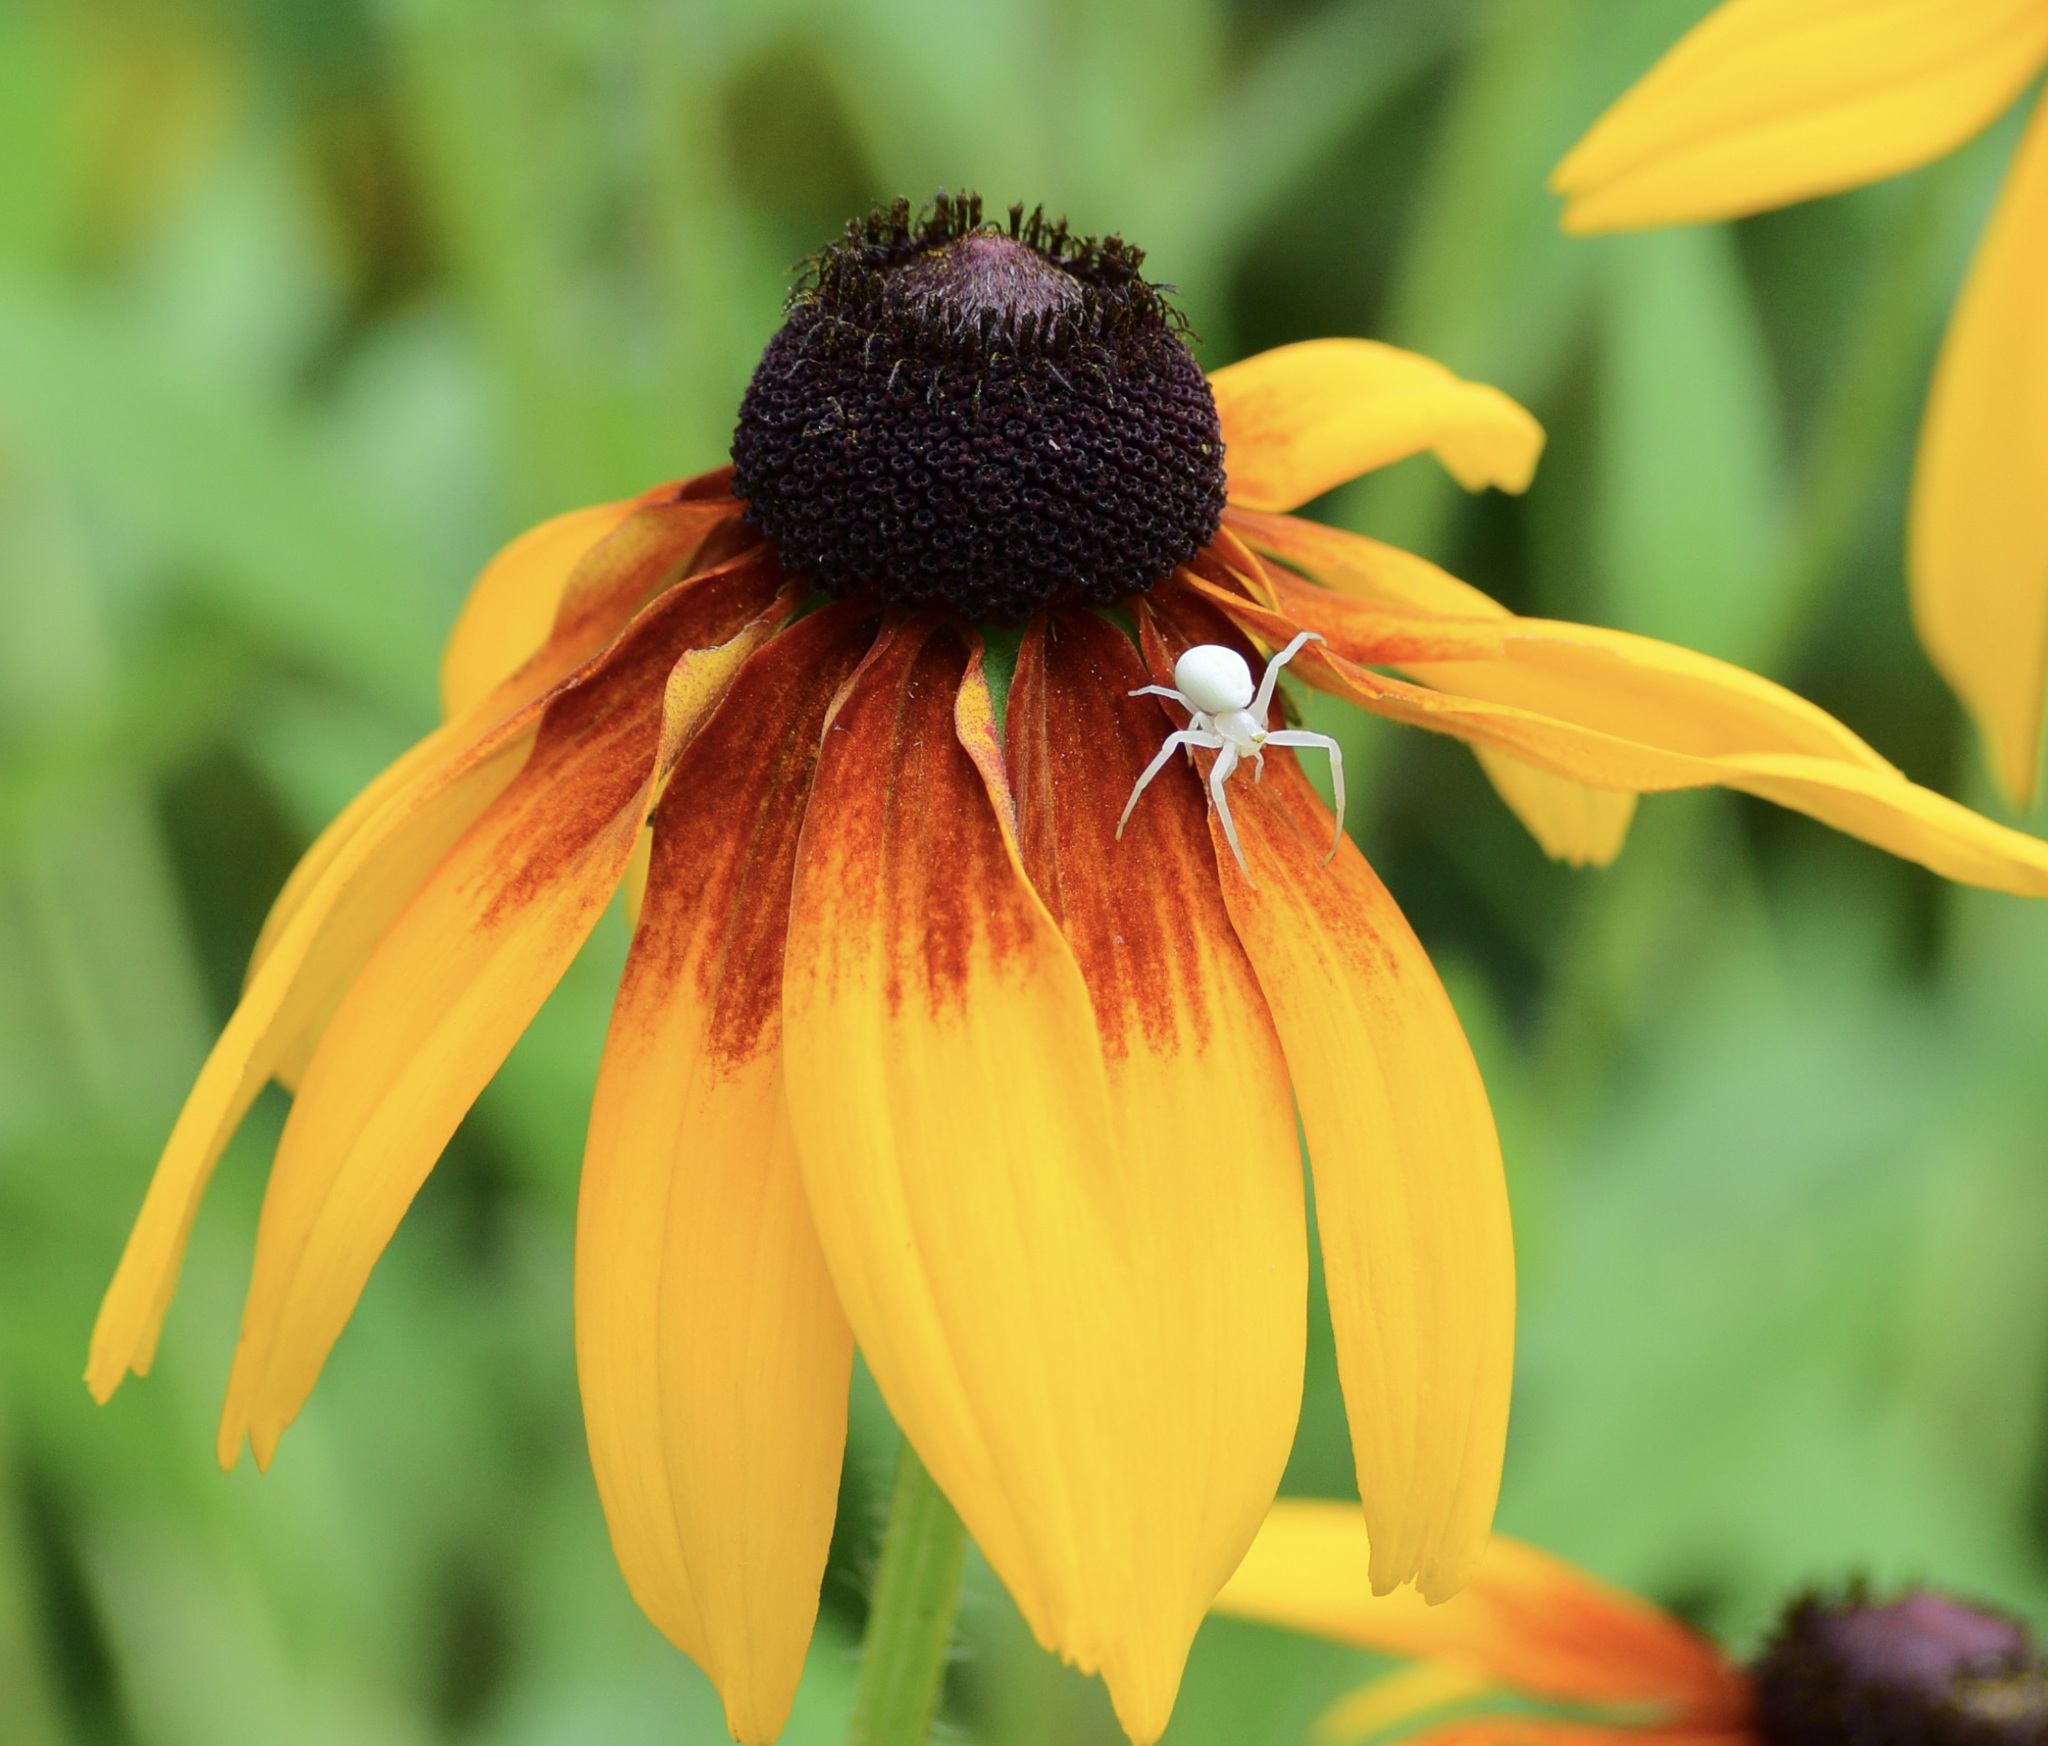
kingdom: Animalia
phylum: Arthropoda
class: Arachnida
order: Araneae
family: Thomisidae
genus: Misumena
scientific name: Misumena vatia
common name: Goldenrod crab spider
